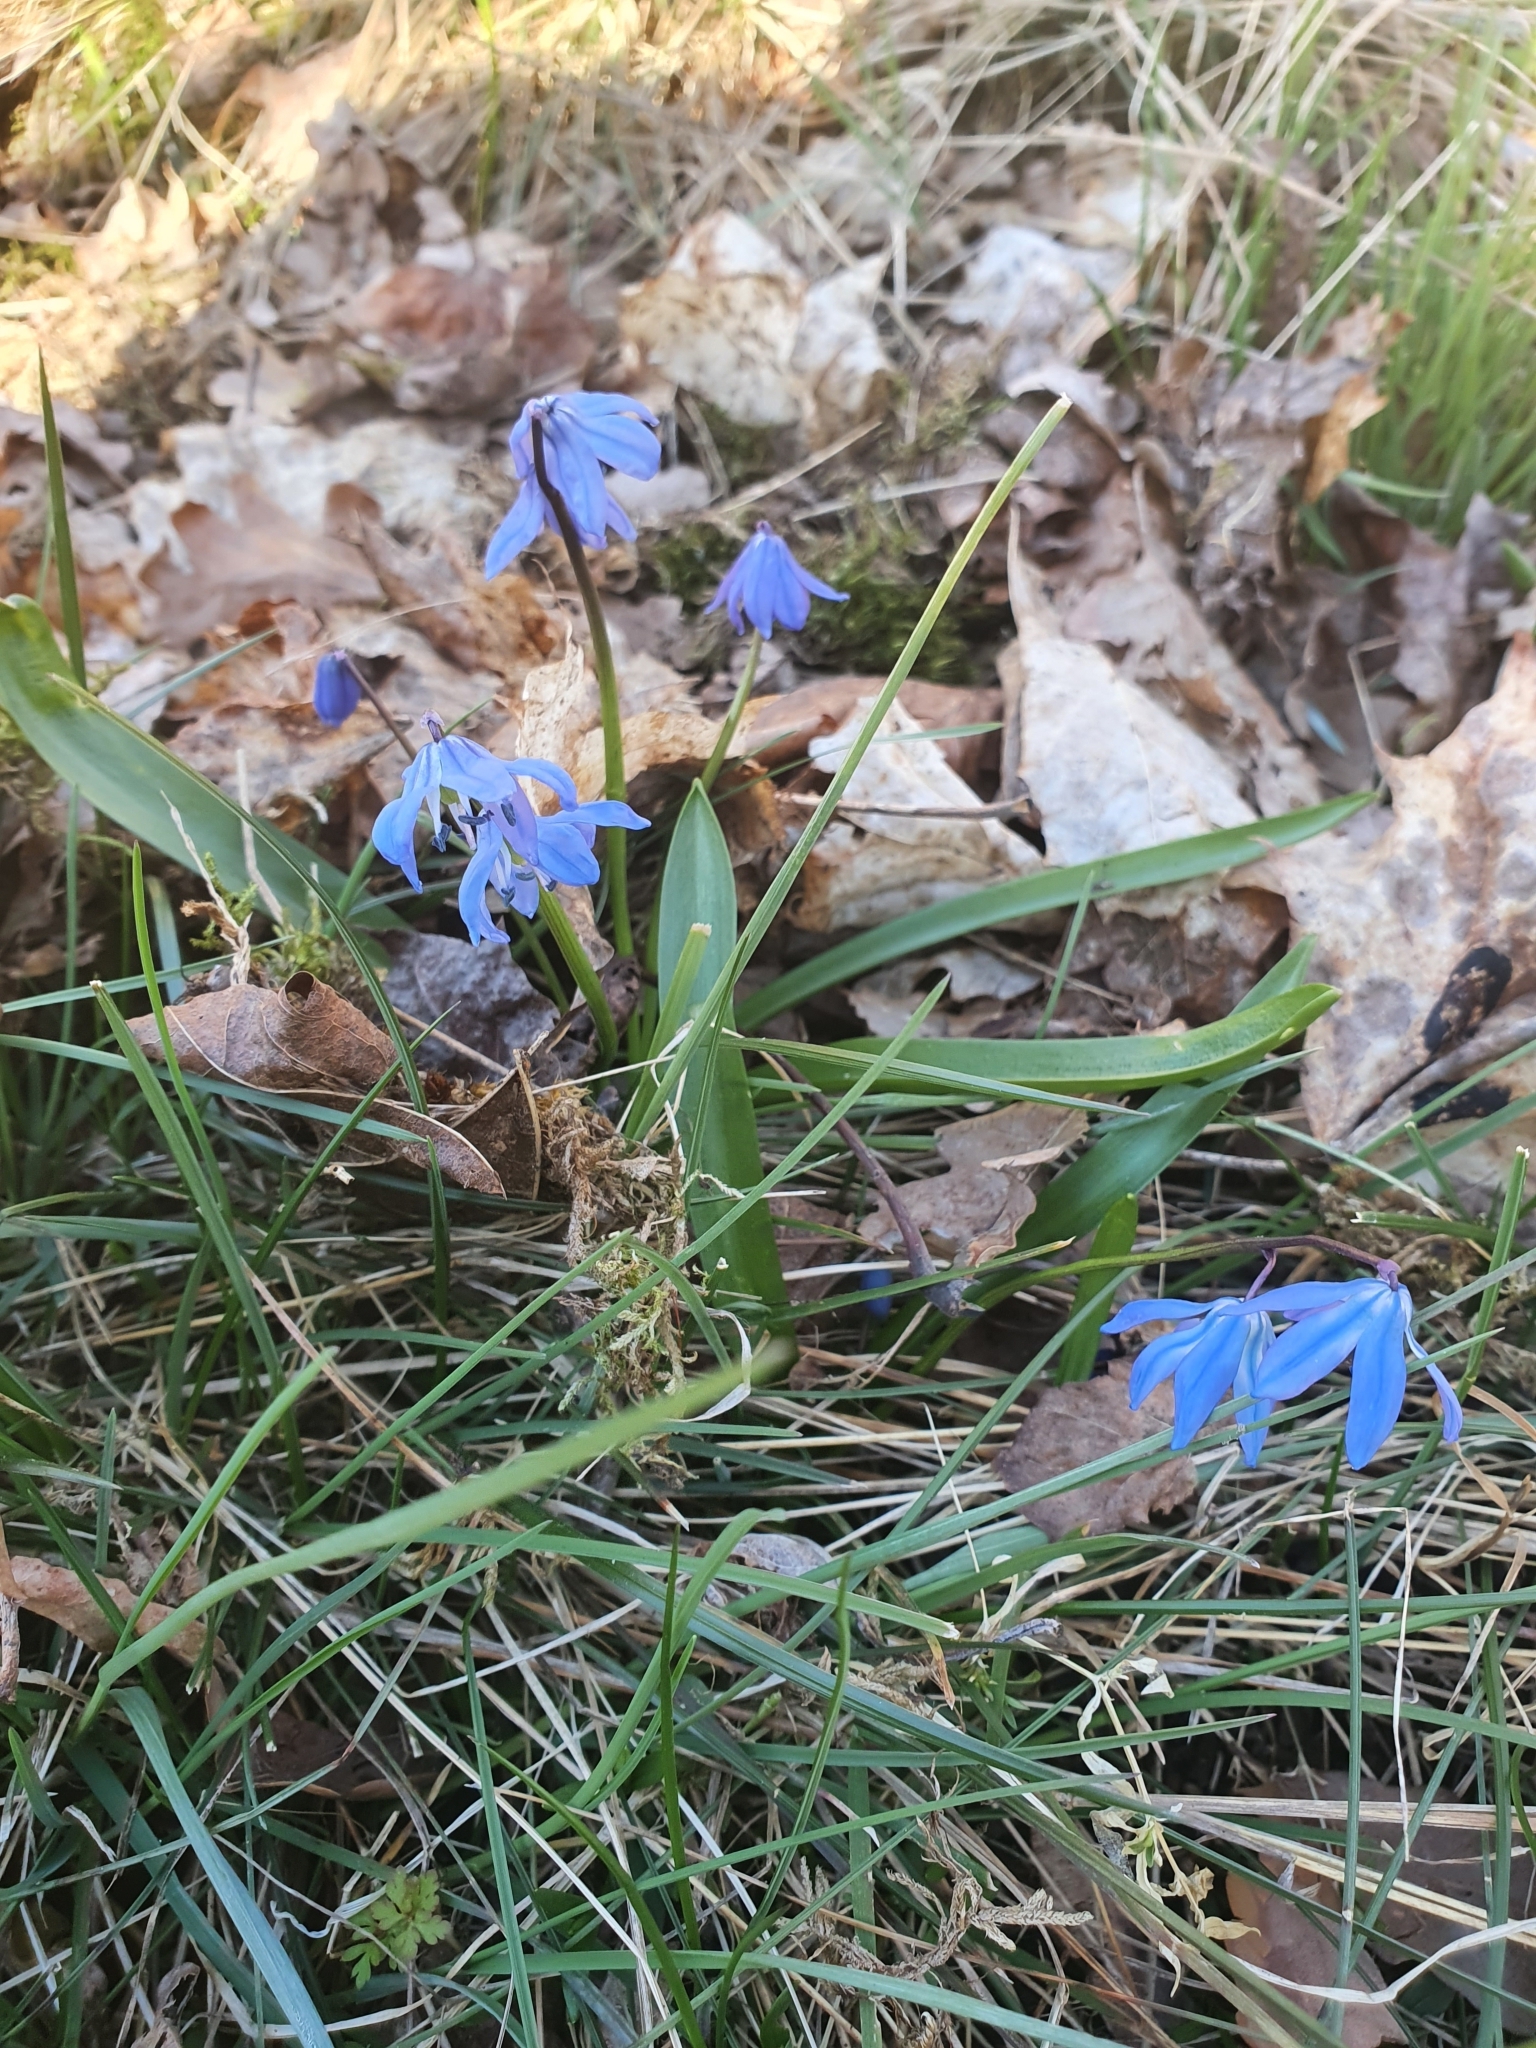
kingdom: Plantae
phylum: Tracheophyta
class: Liliopsida
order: Asparagales
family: Asparagaceae
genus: Scilla
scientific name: Scilla siberica
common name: Siberian squill
